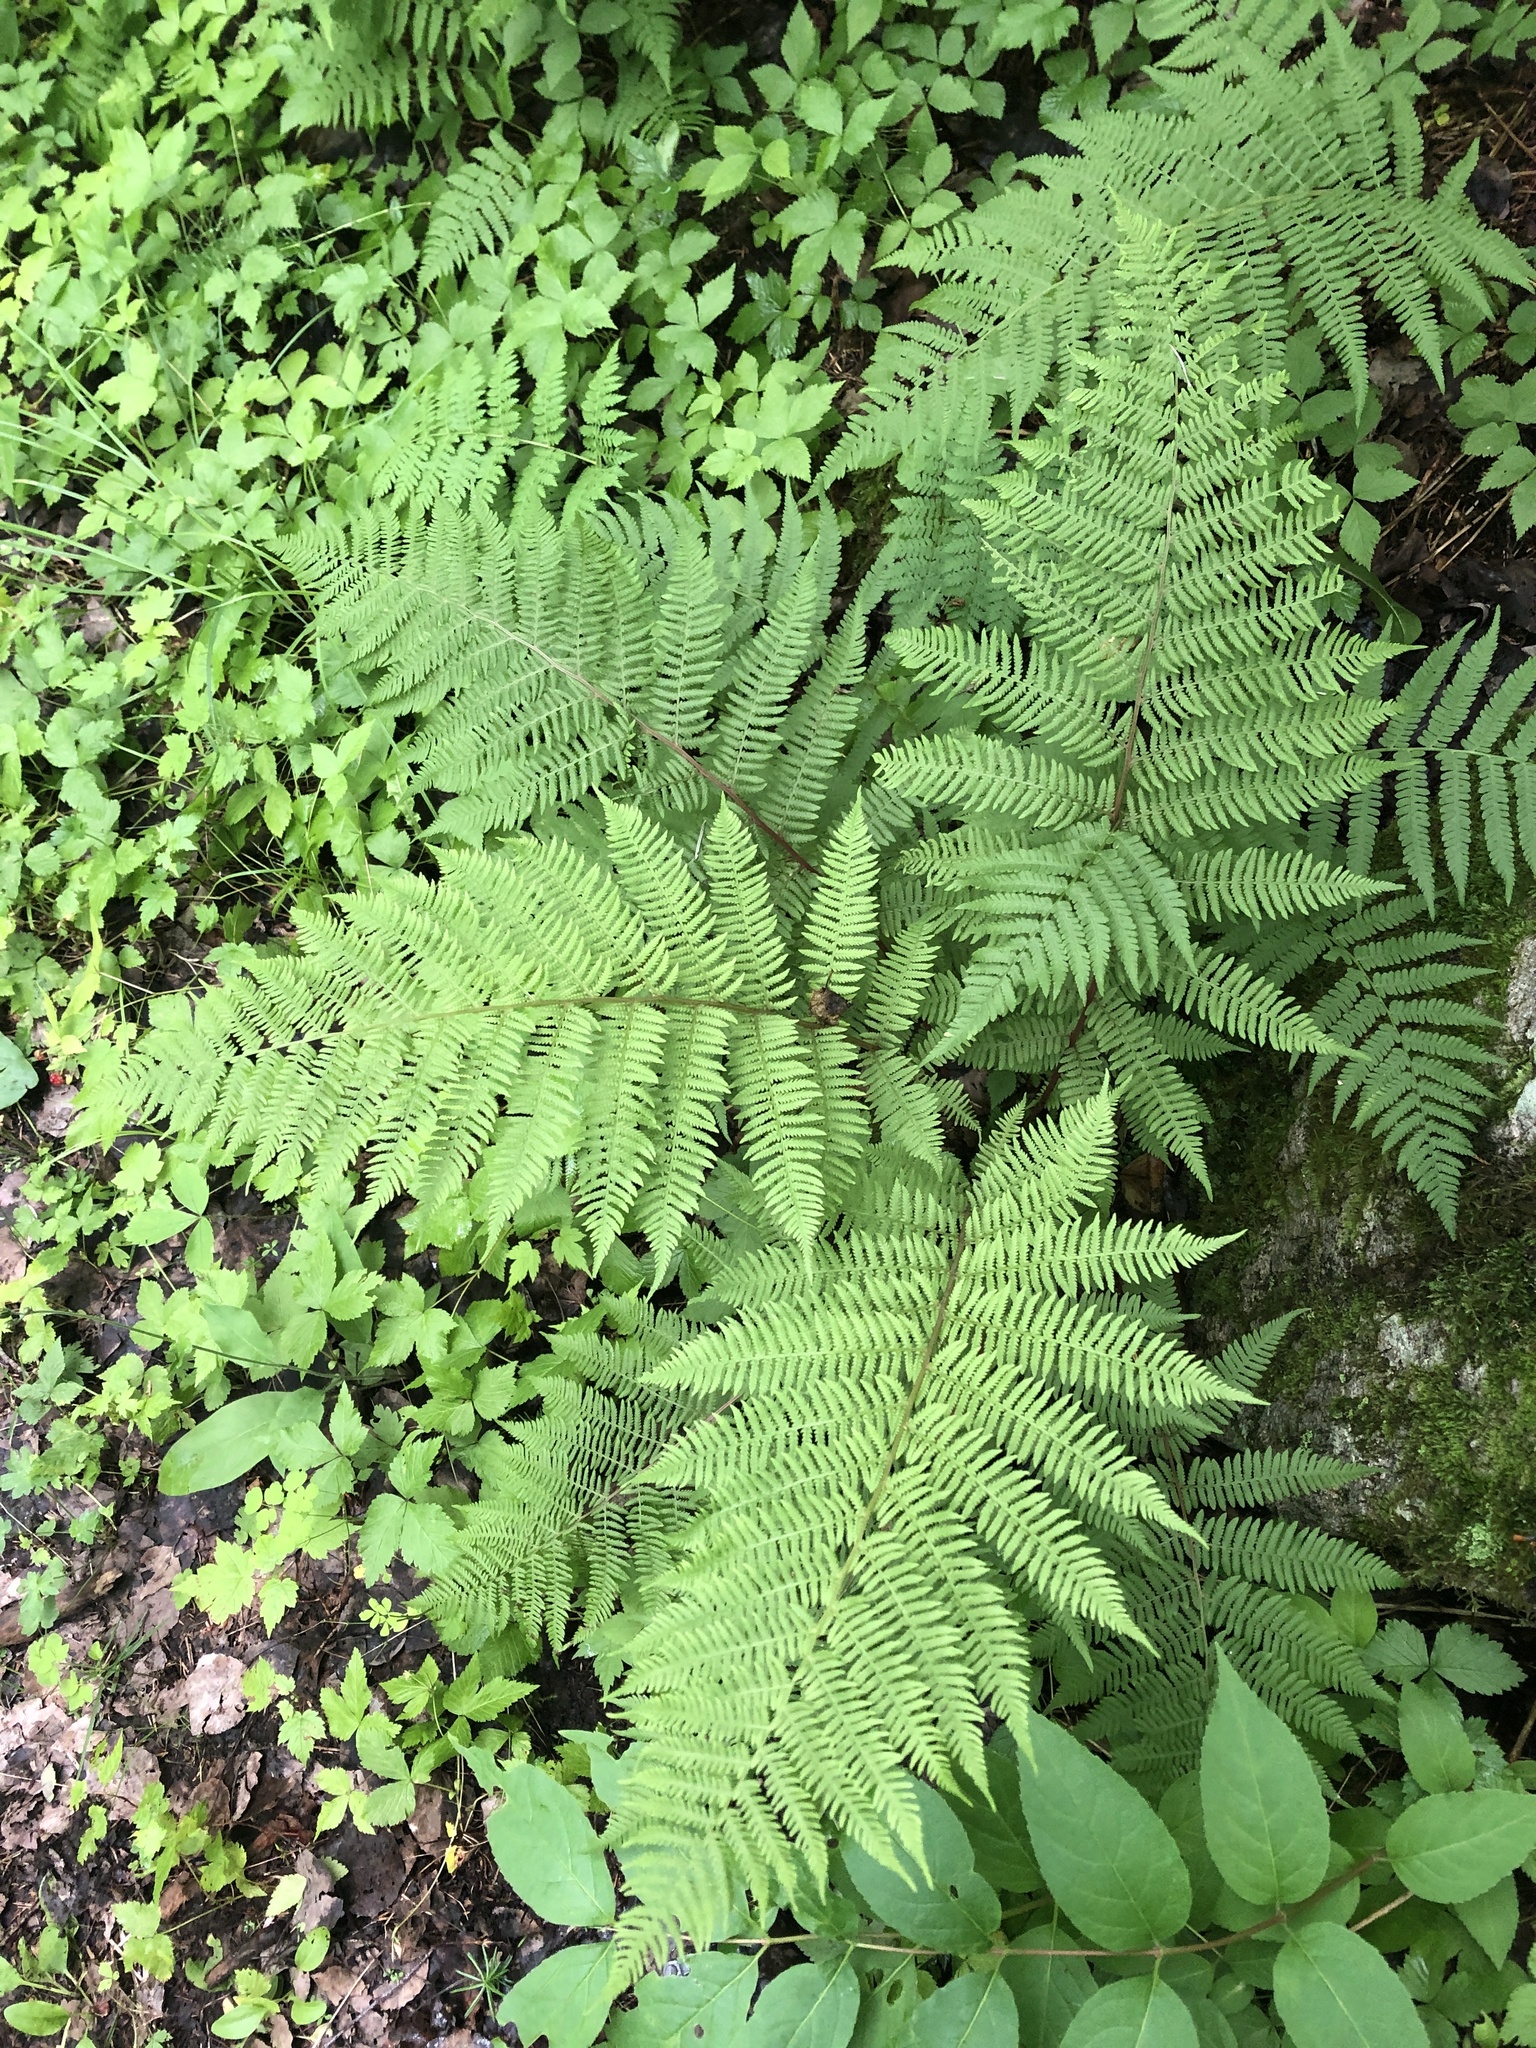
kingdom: Plantae
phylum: Tracheophyta
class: Polypodiopsida
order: Polypodiales
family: Athyriaceae
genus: Athyrium
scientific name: Athyrium angustum
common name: Northern lady fern
